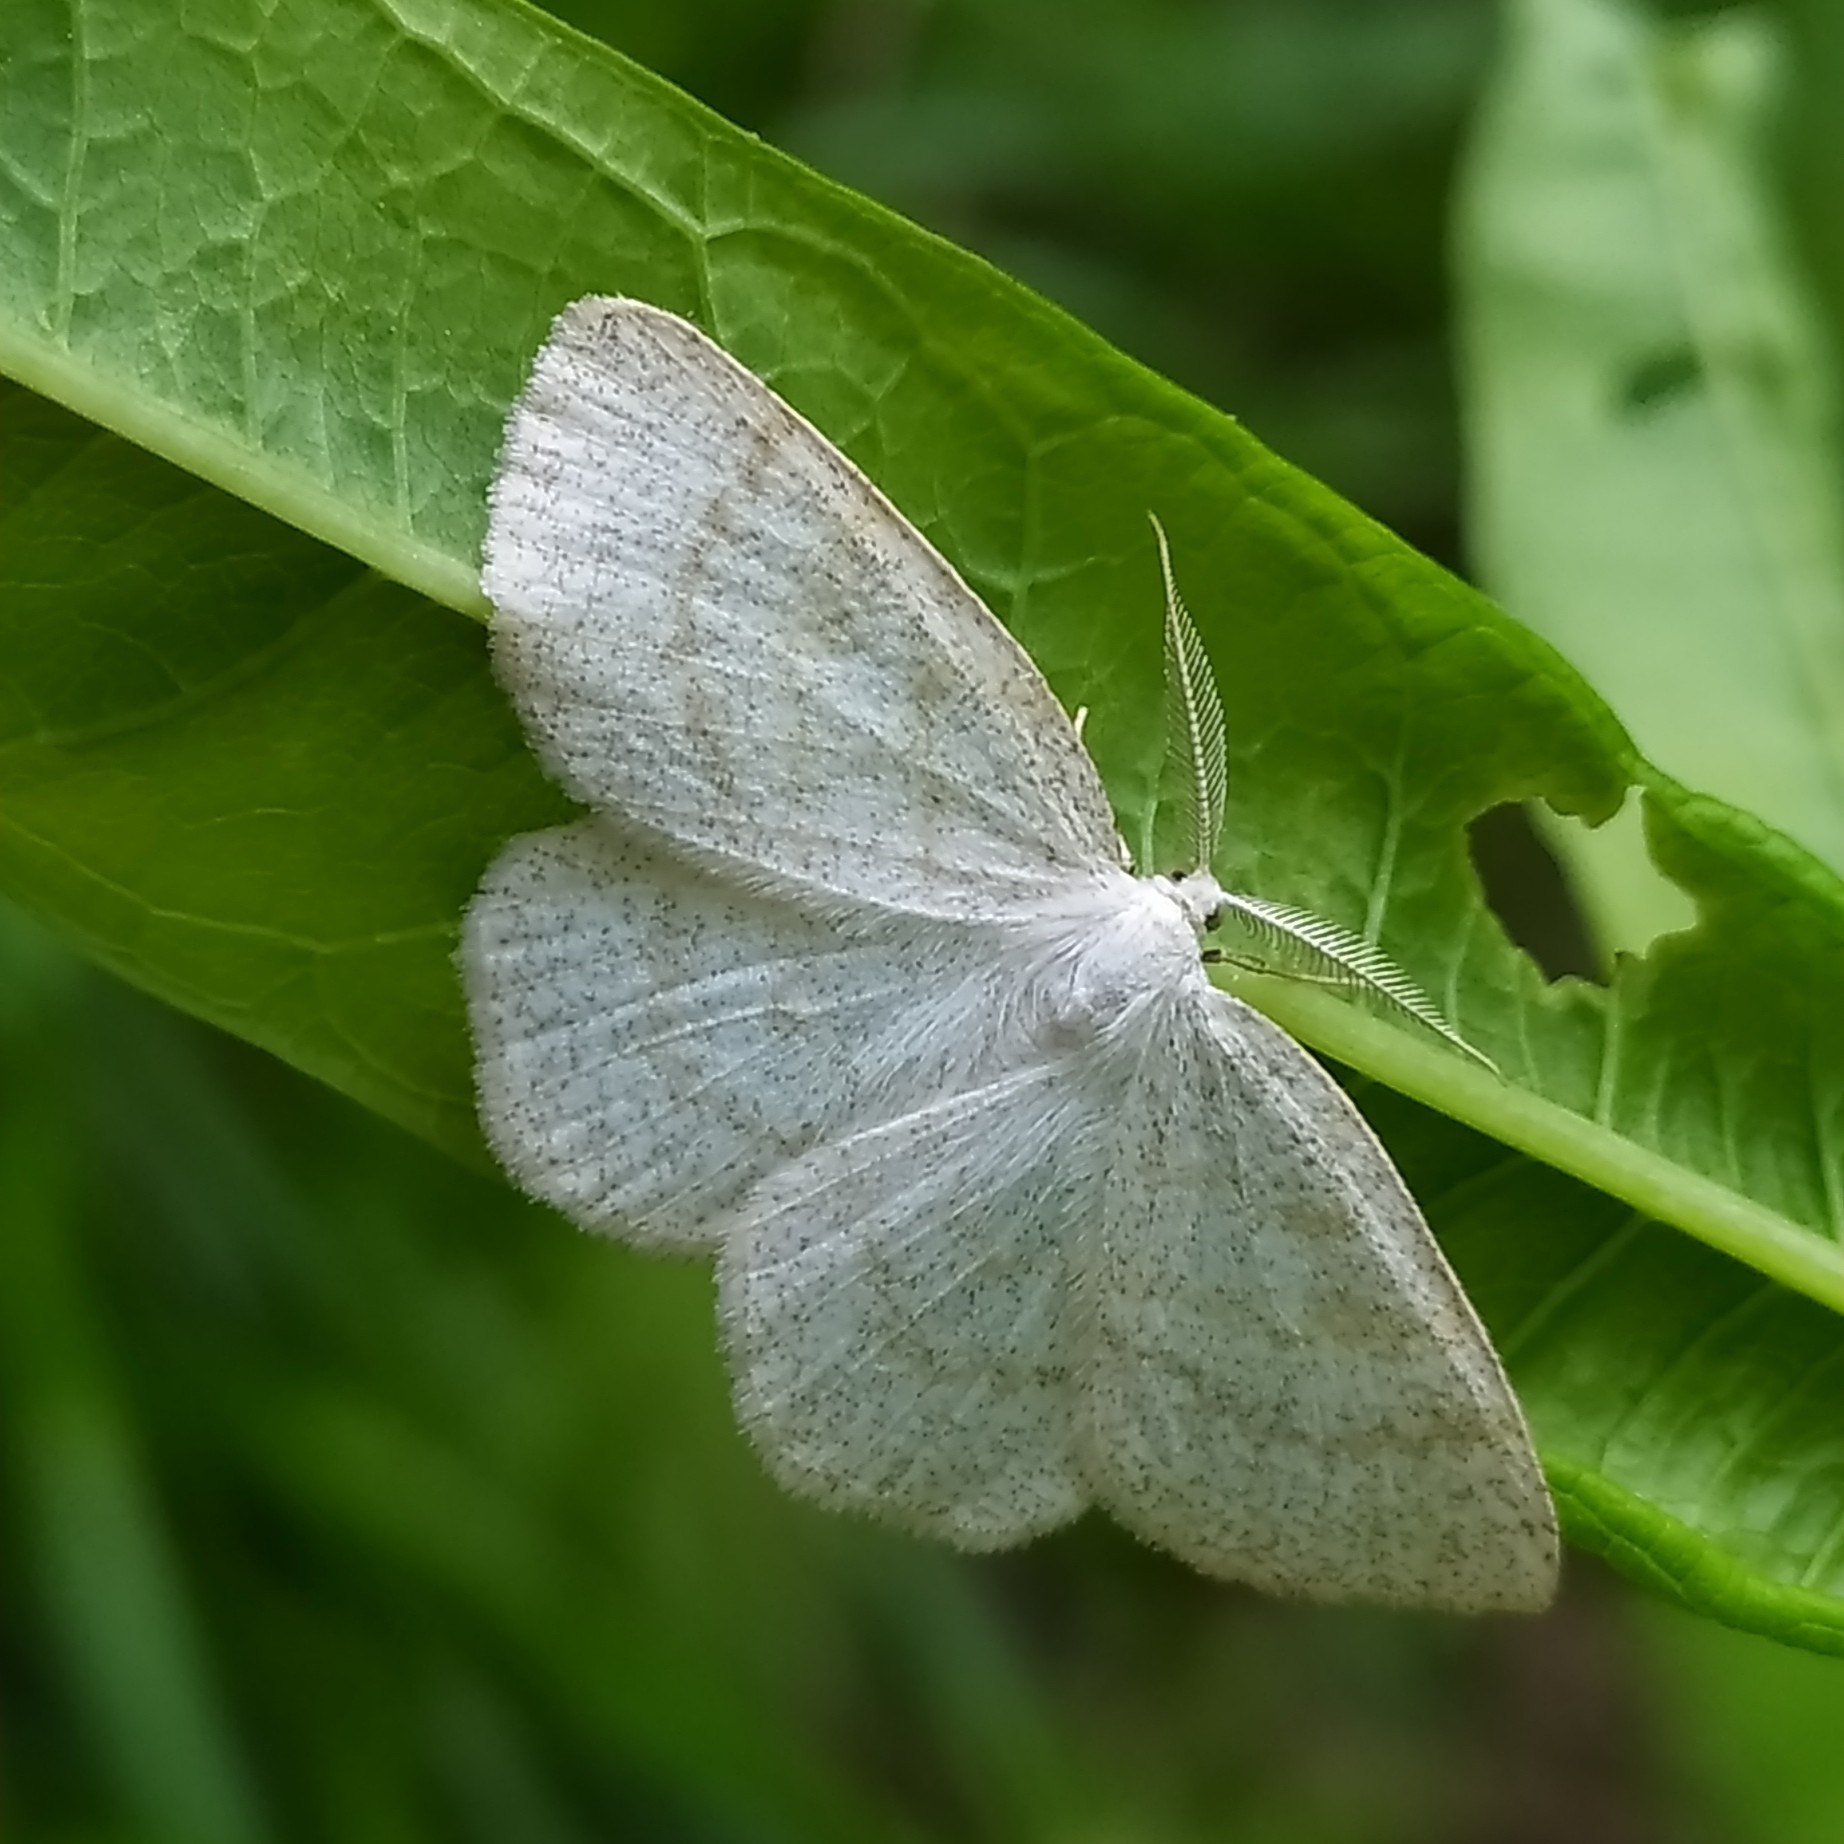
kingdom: Animalia
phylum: Arthropoda
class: Insecta
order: Lepidoptera
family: Geometridae
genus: Cabera
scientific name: Cabera pusaria
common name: Common white wave
